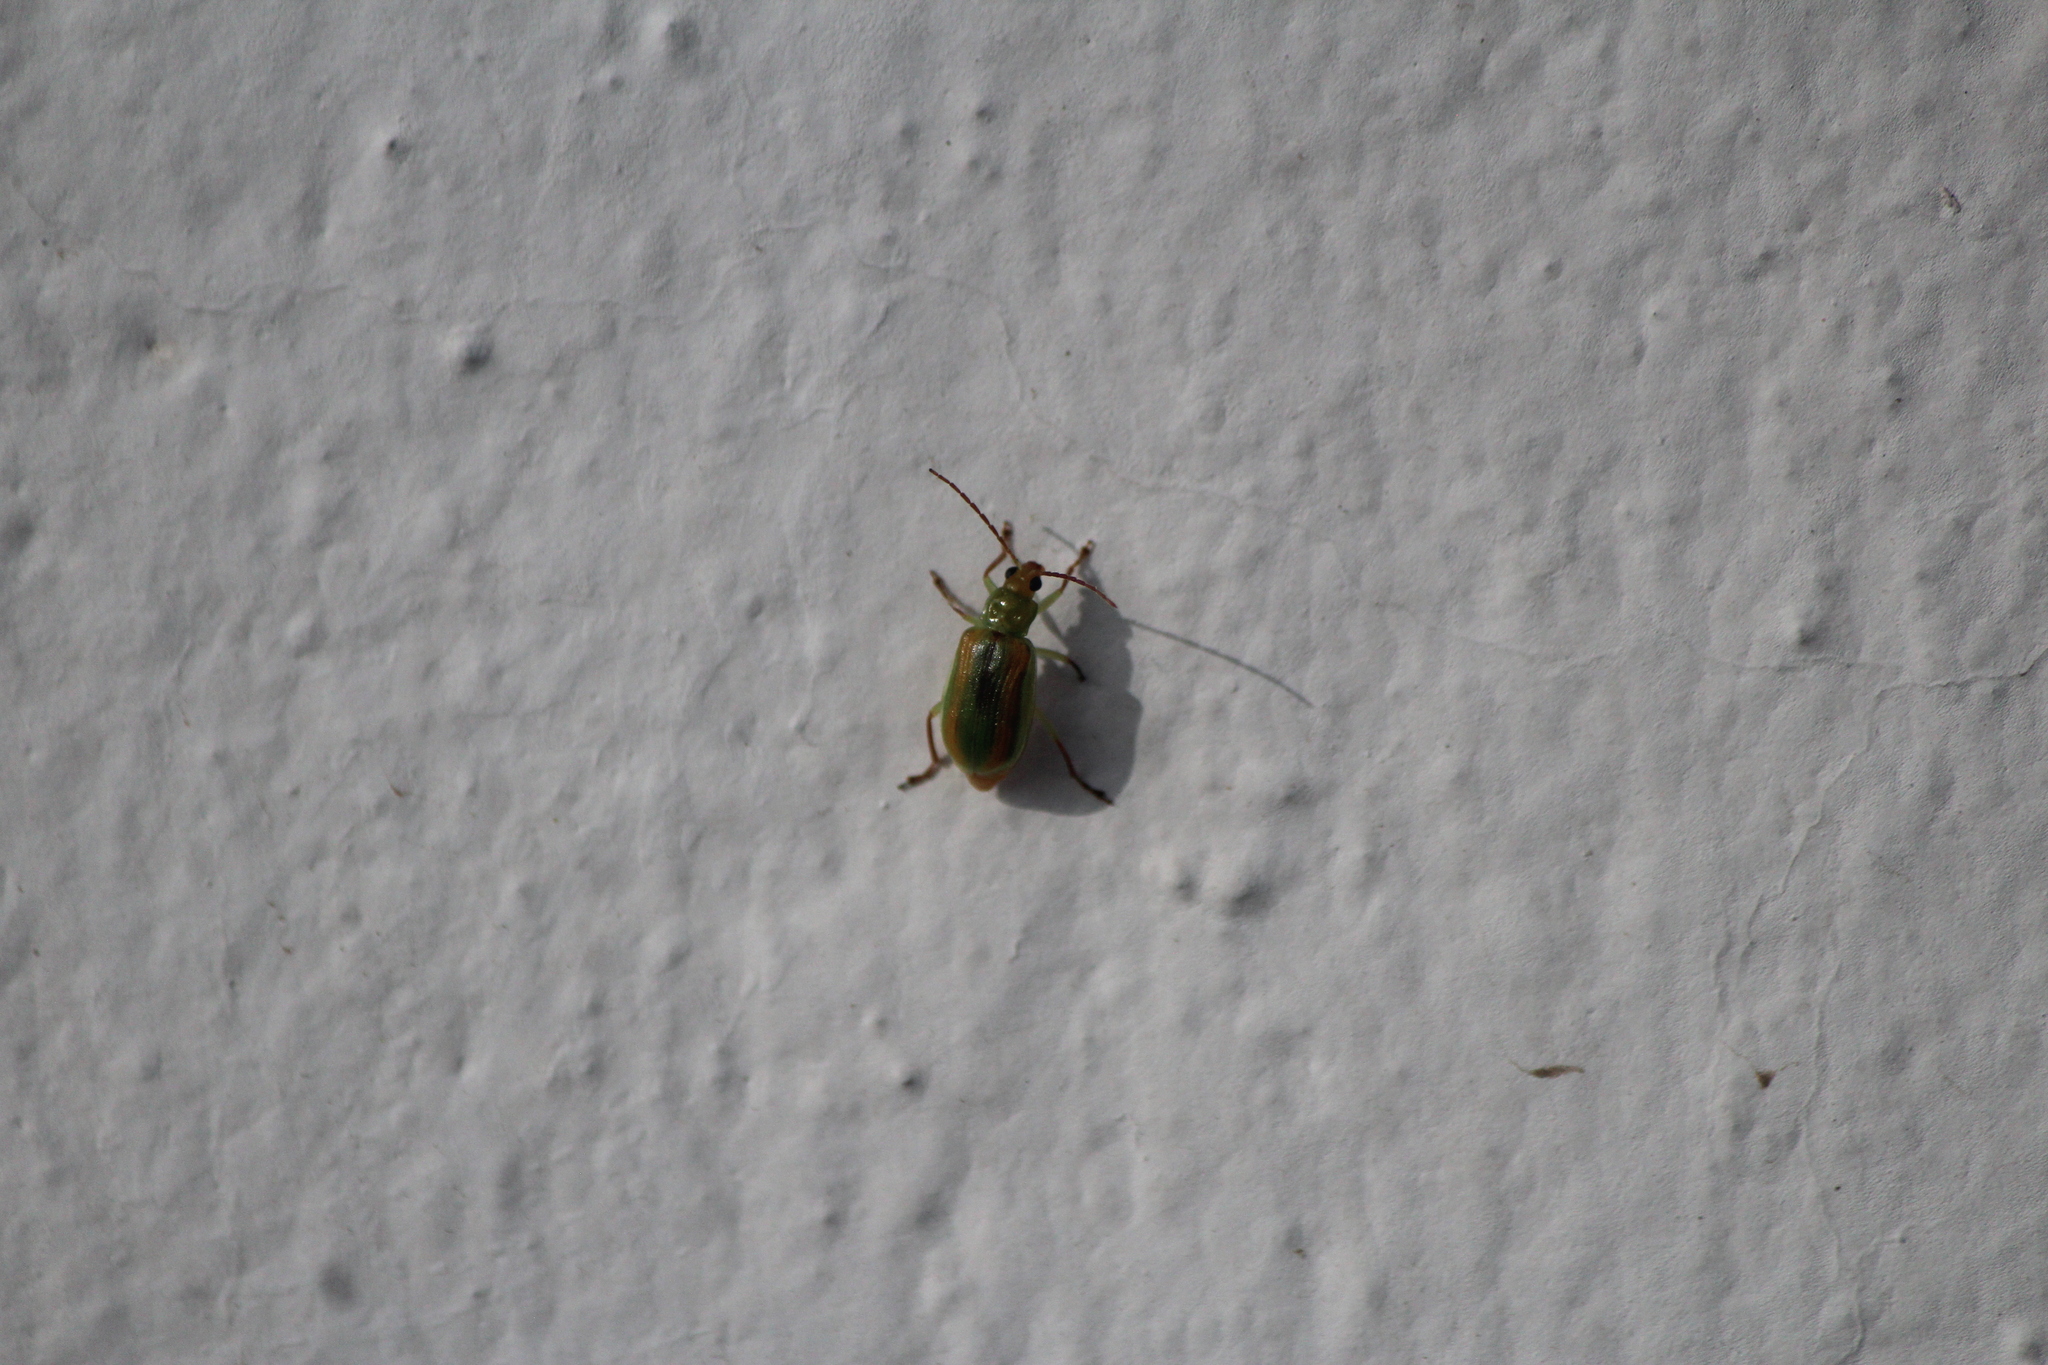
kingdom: Animalia
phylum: Arthropoda
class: Insecta
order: Coleoptera
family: Chrysomelidae
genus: Diabrotica
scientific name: Diabrotica virgifera
